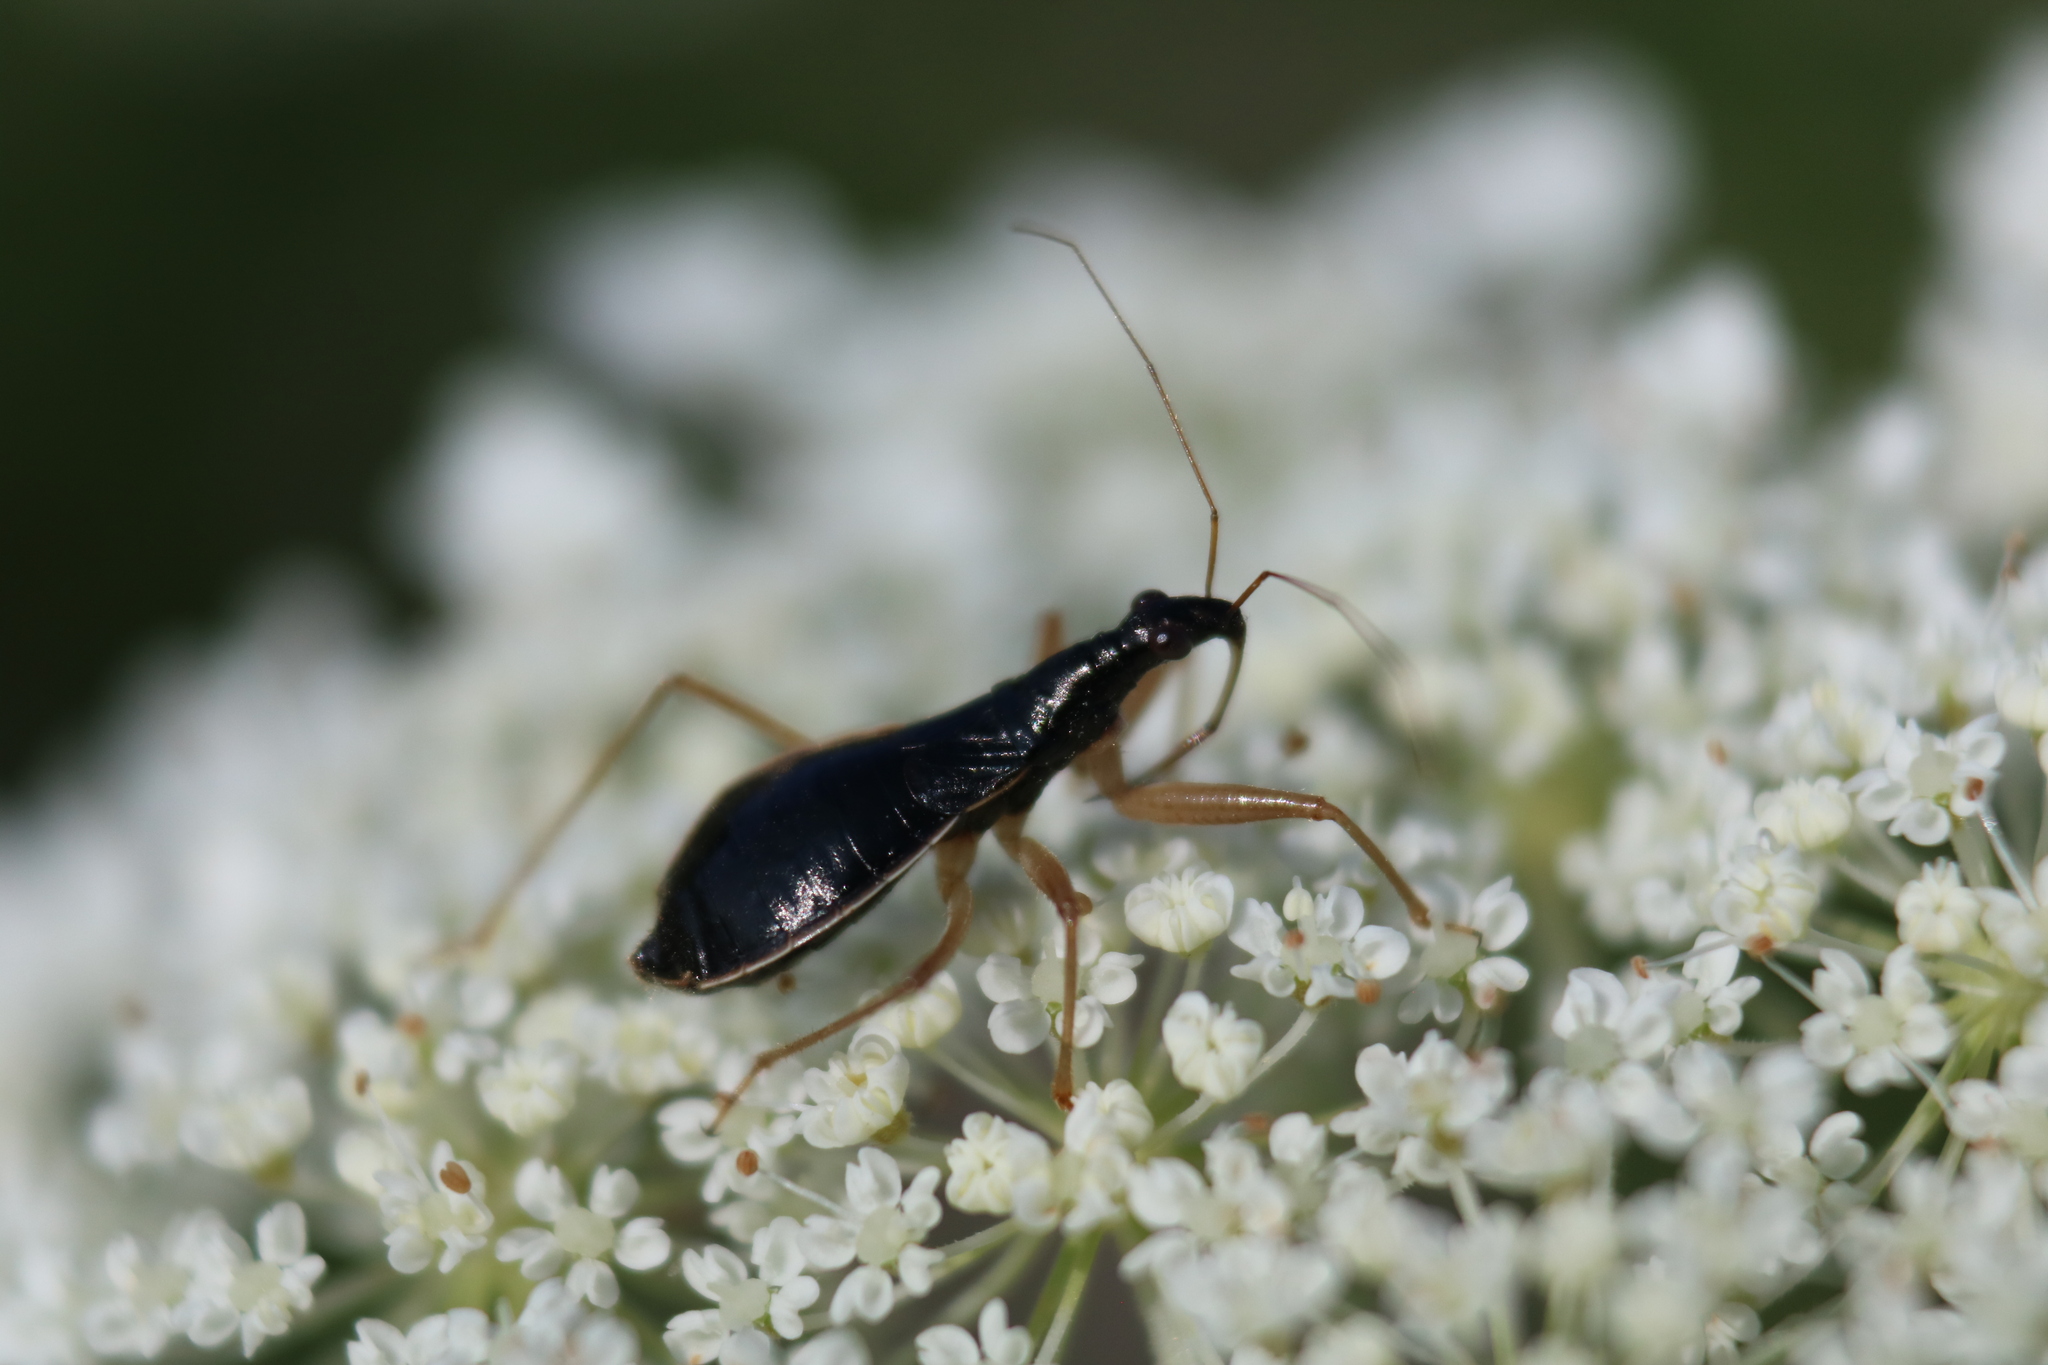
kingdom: Animalia
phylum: Arthropoda
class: Insecta
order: Hemiptera
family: Nabidae
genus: Nabis
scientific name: Nabis
